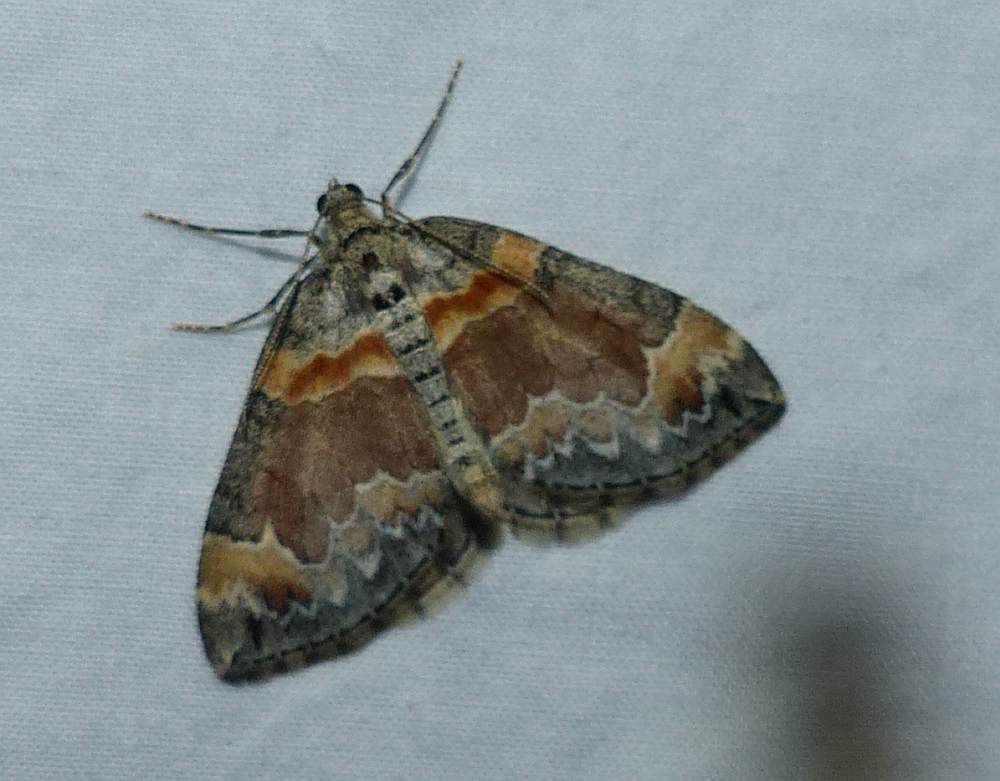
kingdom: Animalia
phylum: Arthropoda
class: Insecta
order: Lepidoptera
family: Geometridae
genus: Dysstroma
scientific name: Dysstroma hersiliata
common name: Orange-barred carpet
